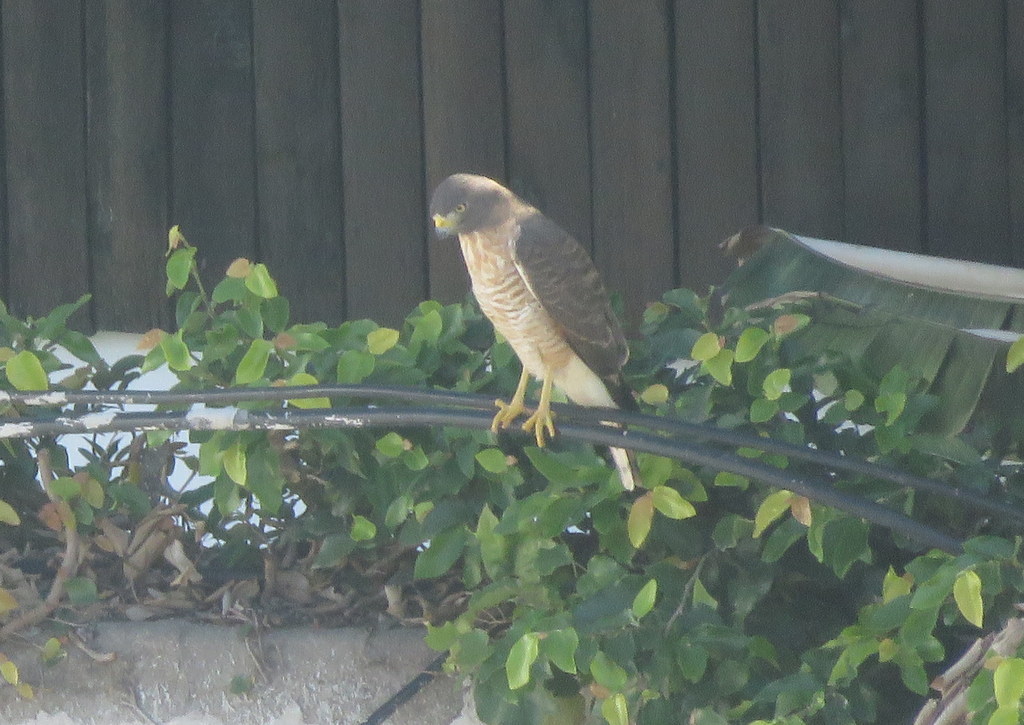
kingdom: Animalia
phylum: Chordata
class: Aves
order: Accipitriformes
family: Accipitridae
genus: Rupornis
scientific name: Rupornis magnirostris
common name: Roadside hawk
